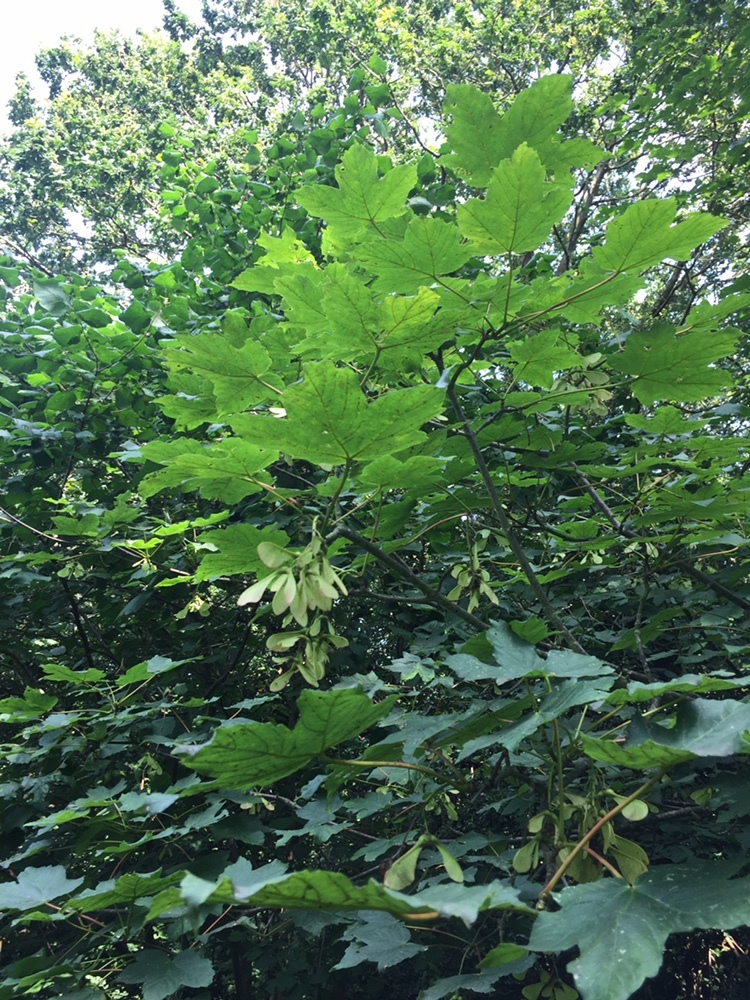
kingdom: Plantae
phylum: Tracheophyta
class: Magnoliopsida
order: Sapindales
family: Sapindaceae
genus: Acer
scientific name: Acer pseudoplatanus
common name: Sycamore
